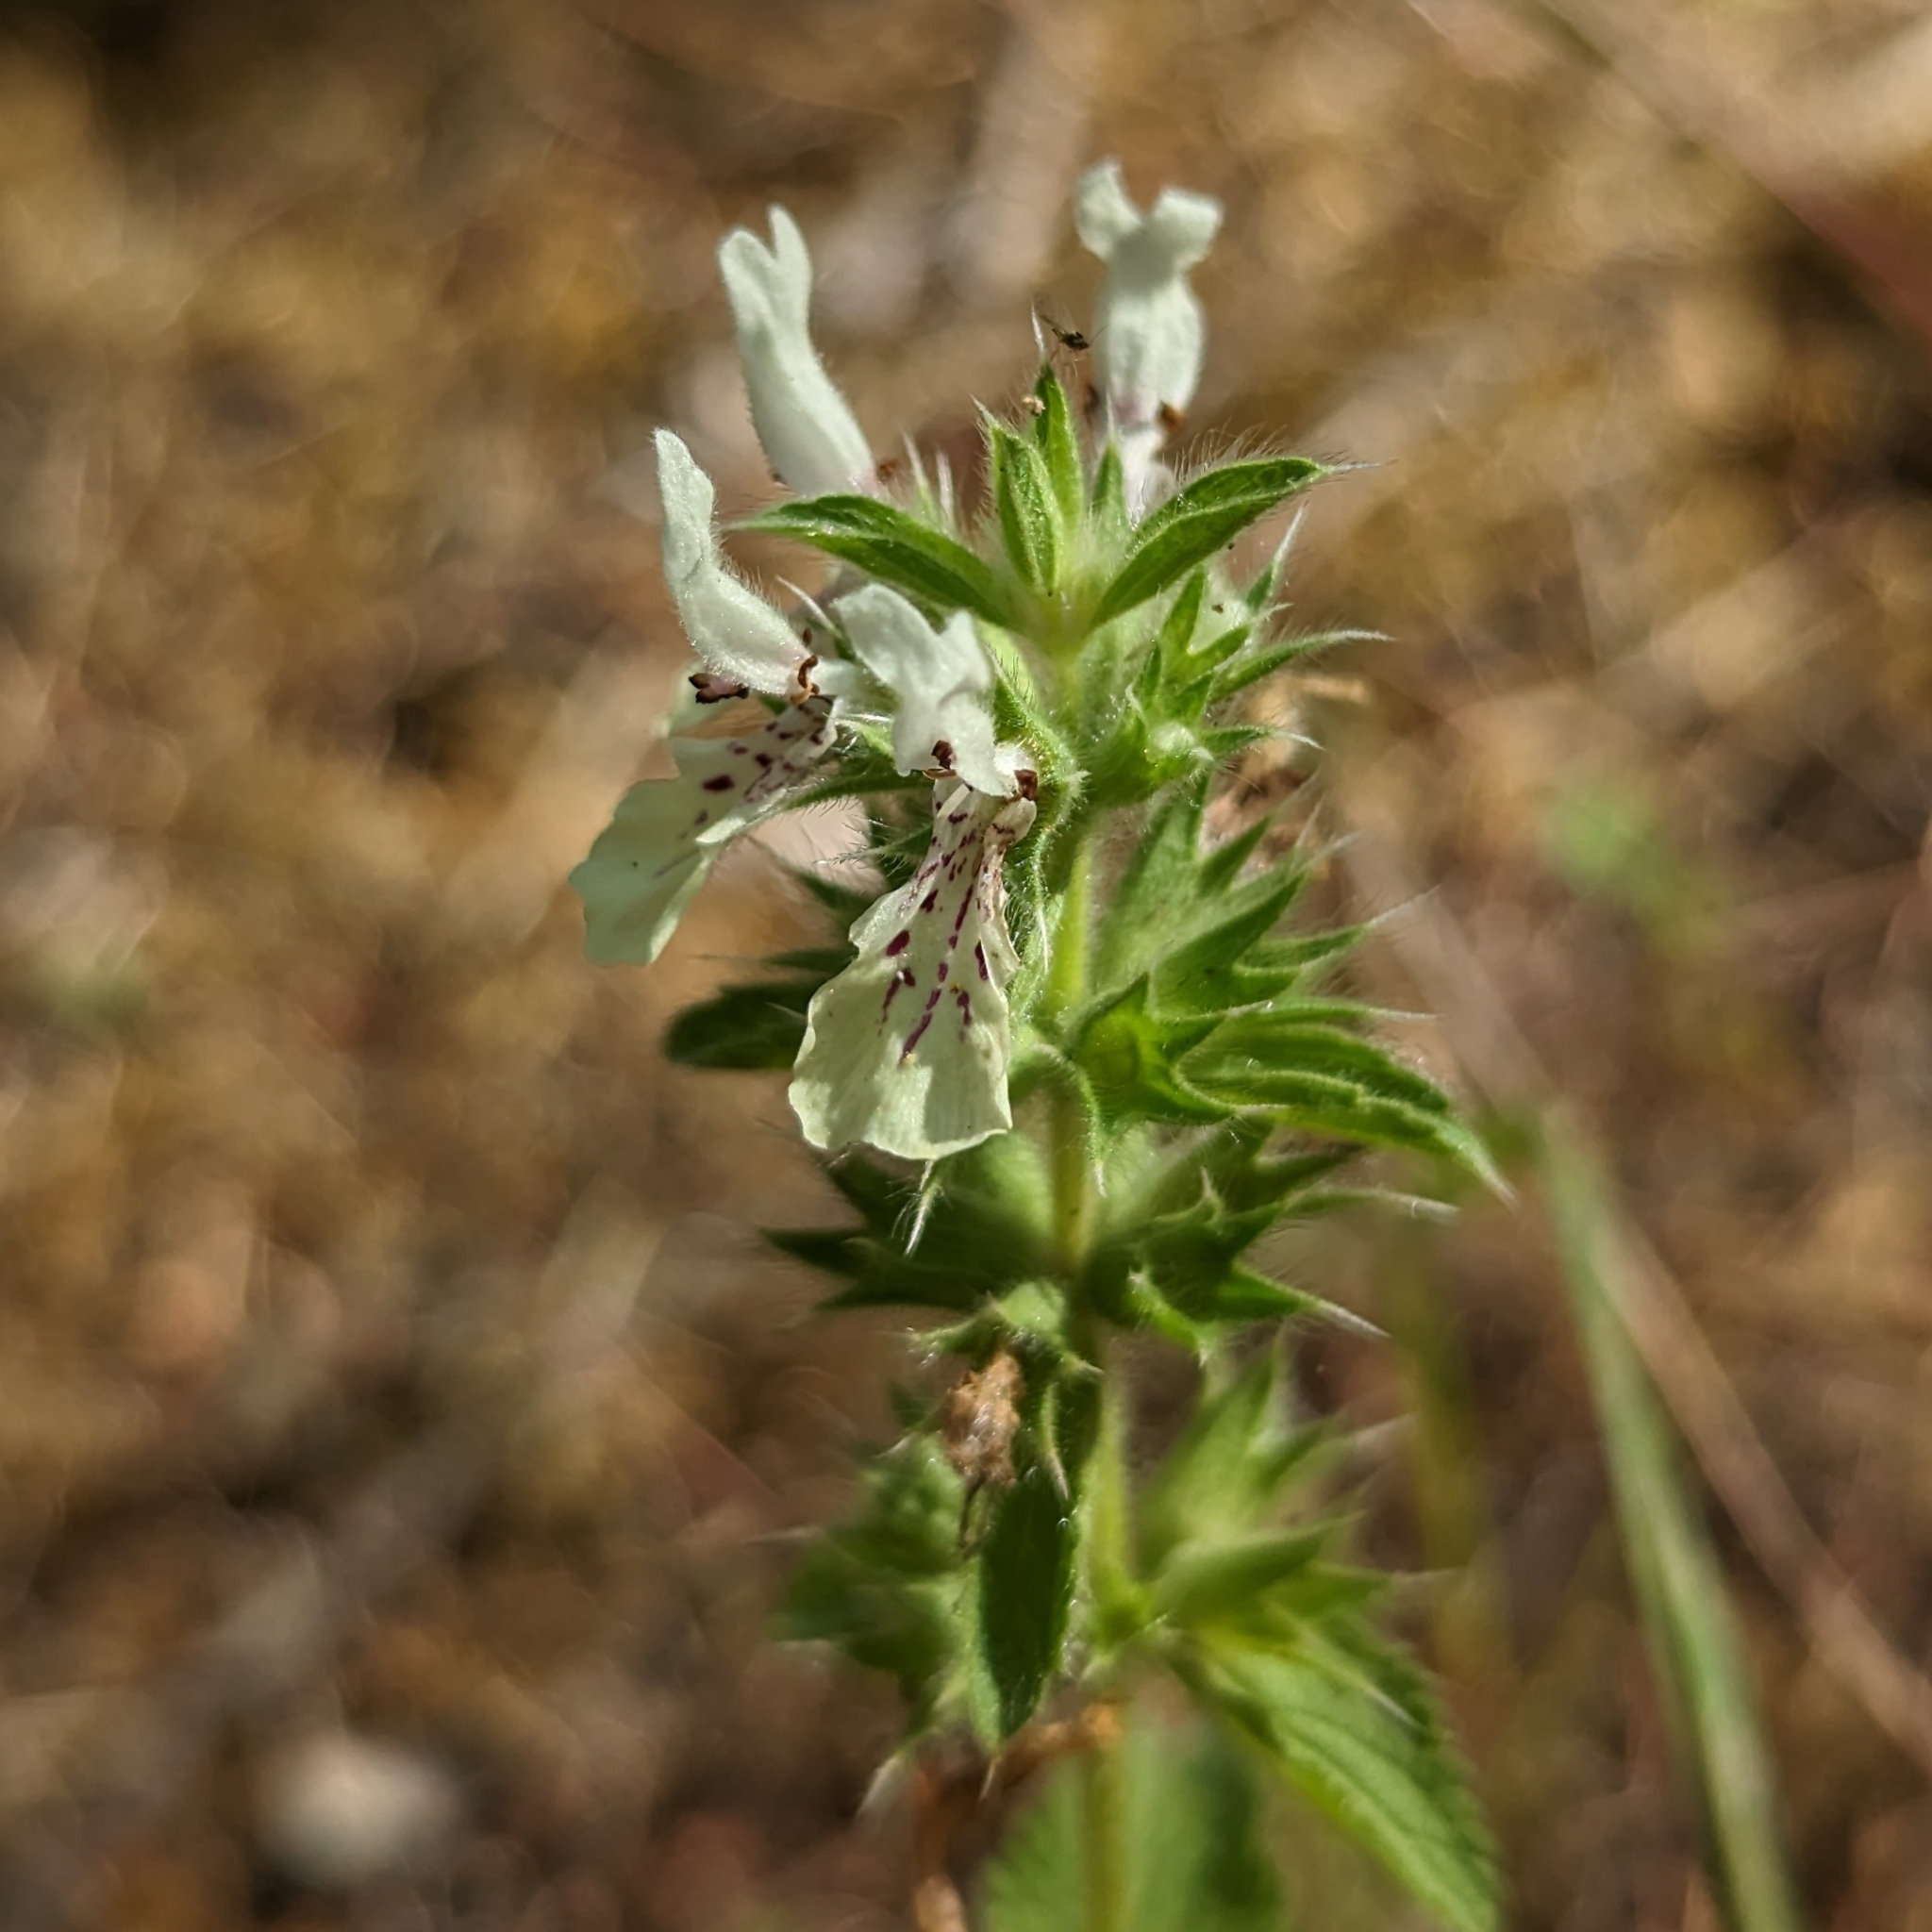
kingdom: Plantae
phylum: Tracheophyta
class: Magnoliopsida
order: Lamiales
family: Lamiaceae
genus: Stachys
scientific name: Stachys ocymastrum
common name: Italian hedgenettle
